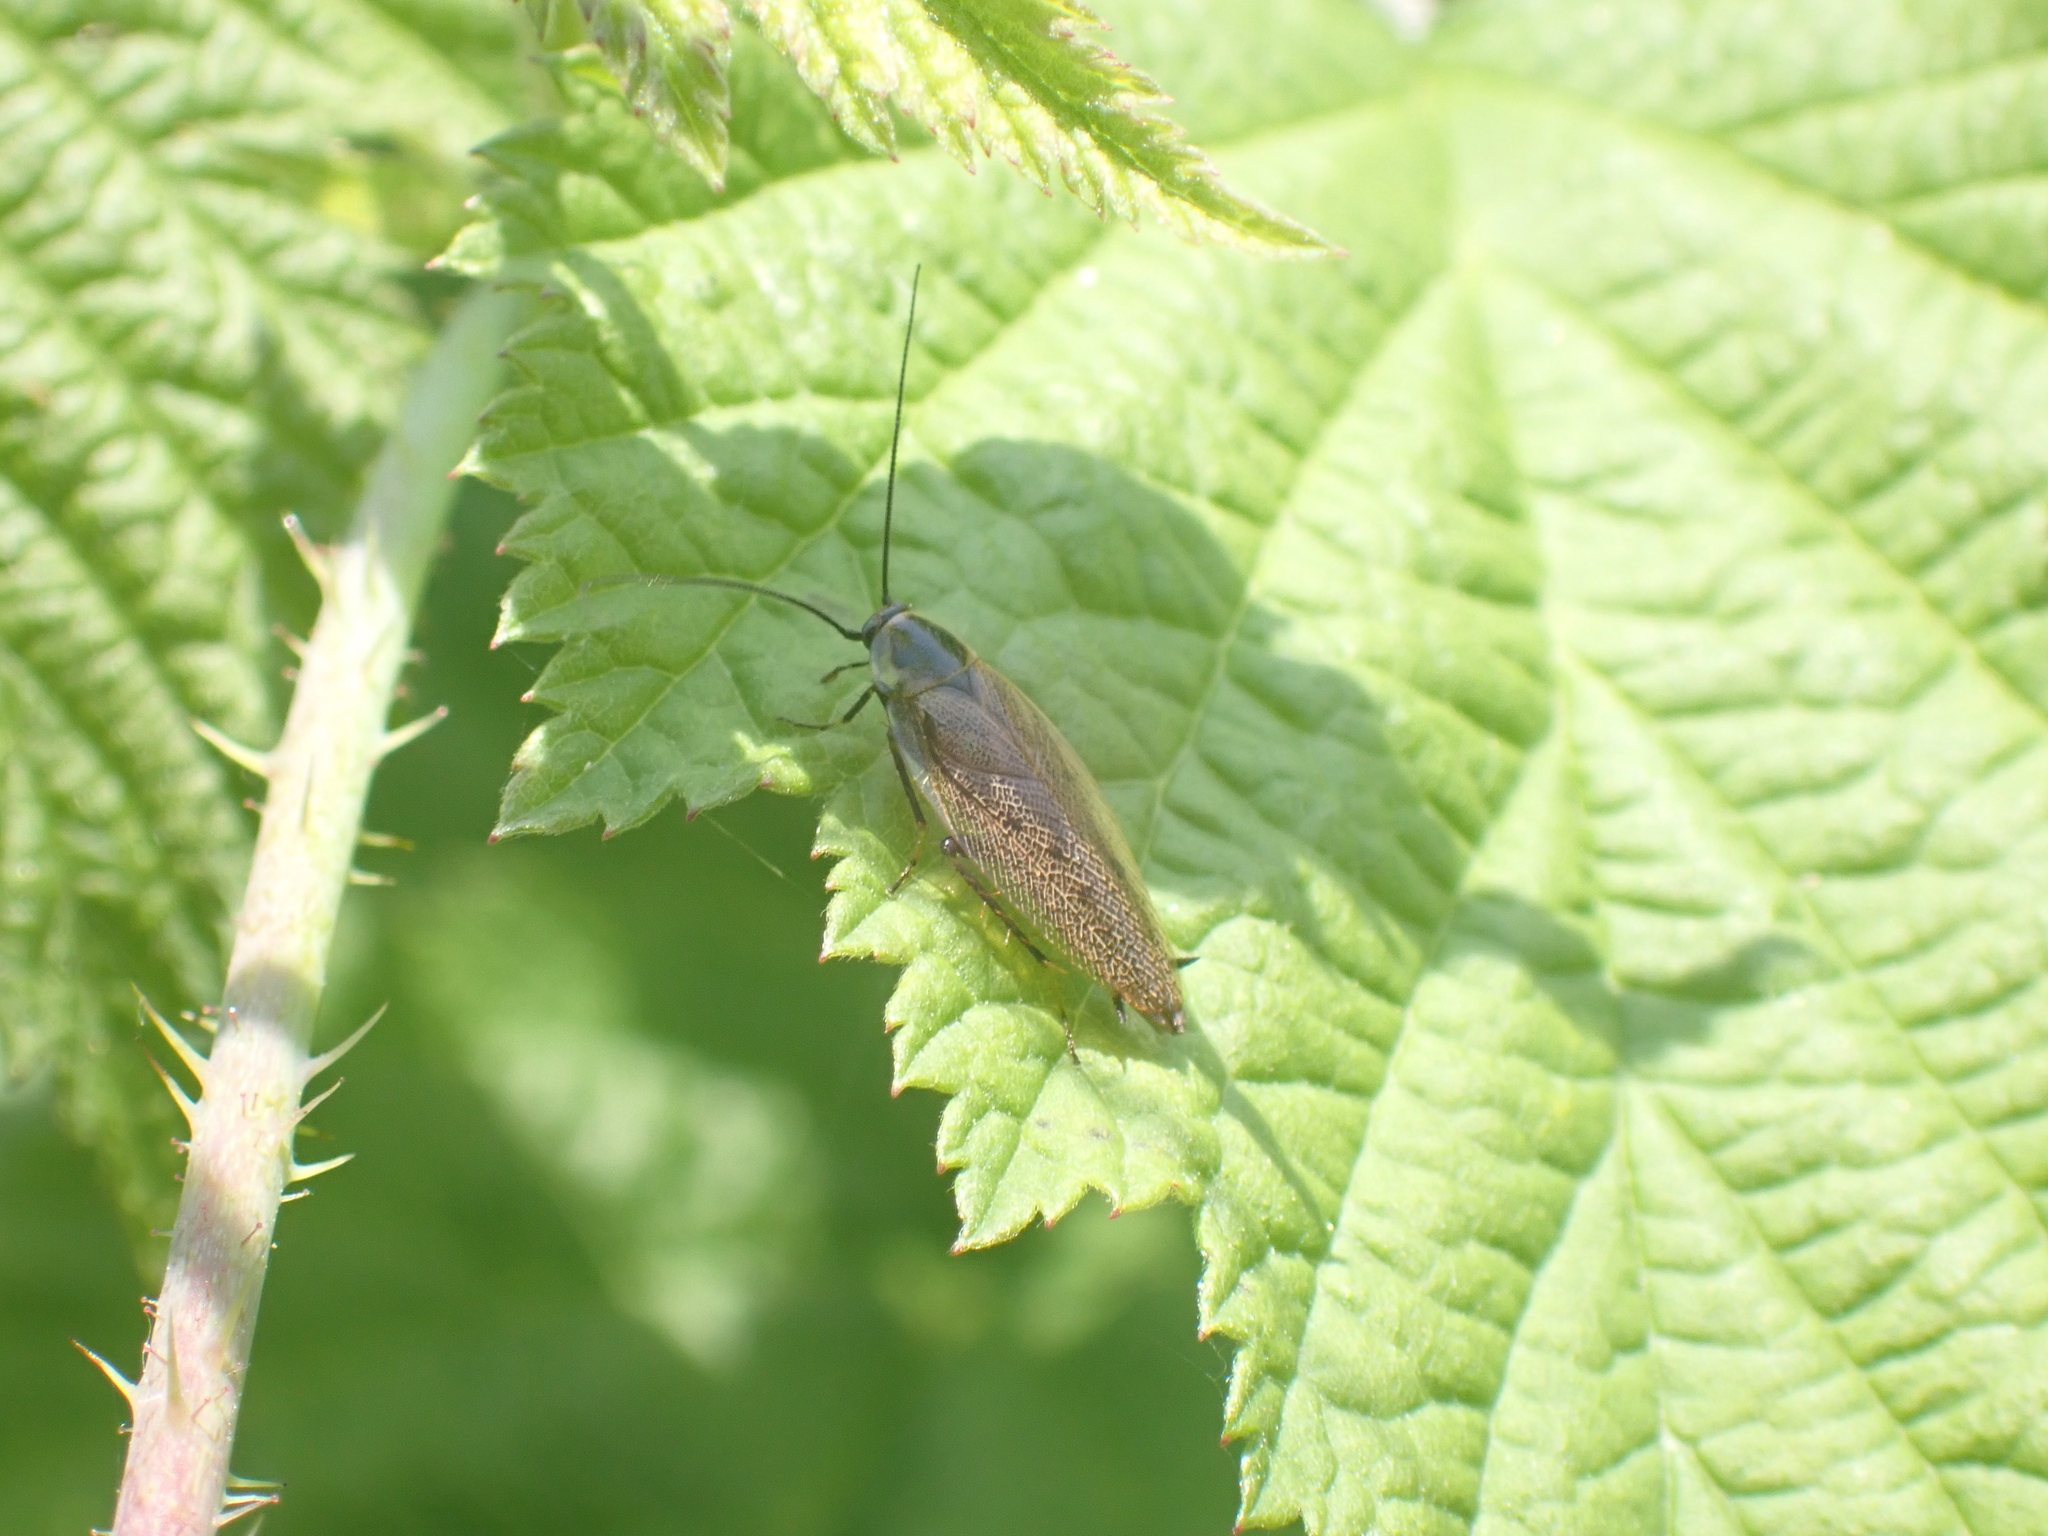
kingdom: Animalia
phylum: Arthropoda
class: Insecta
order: Blattodea
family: Ectobiidae
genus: Ectobius
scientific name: Ectobius lapponicus
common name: Dusky cockroach
